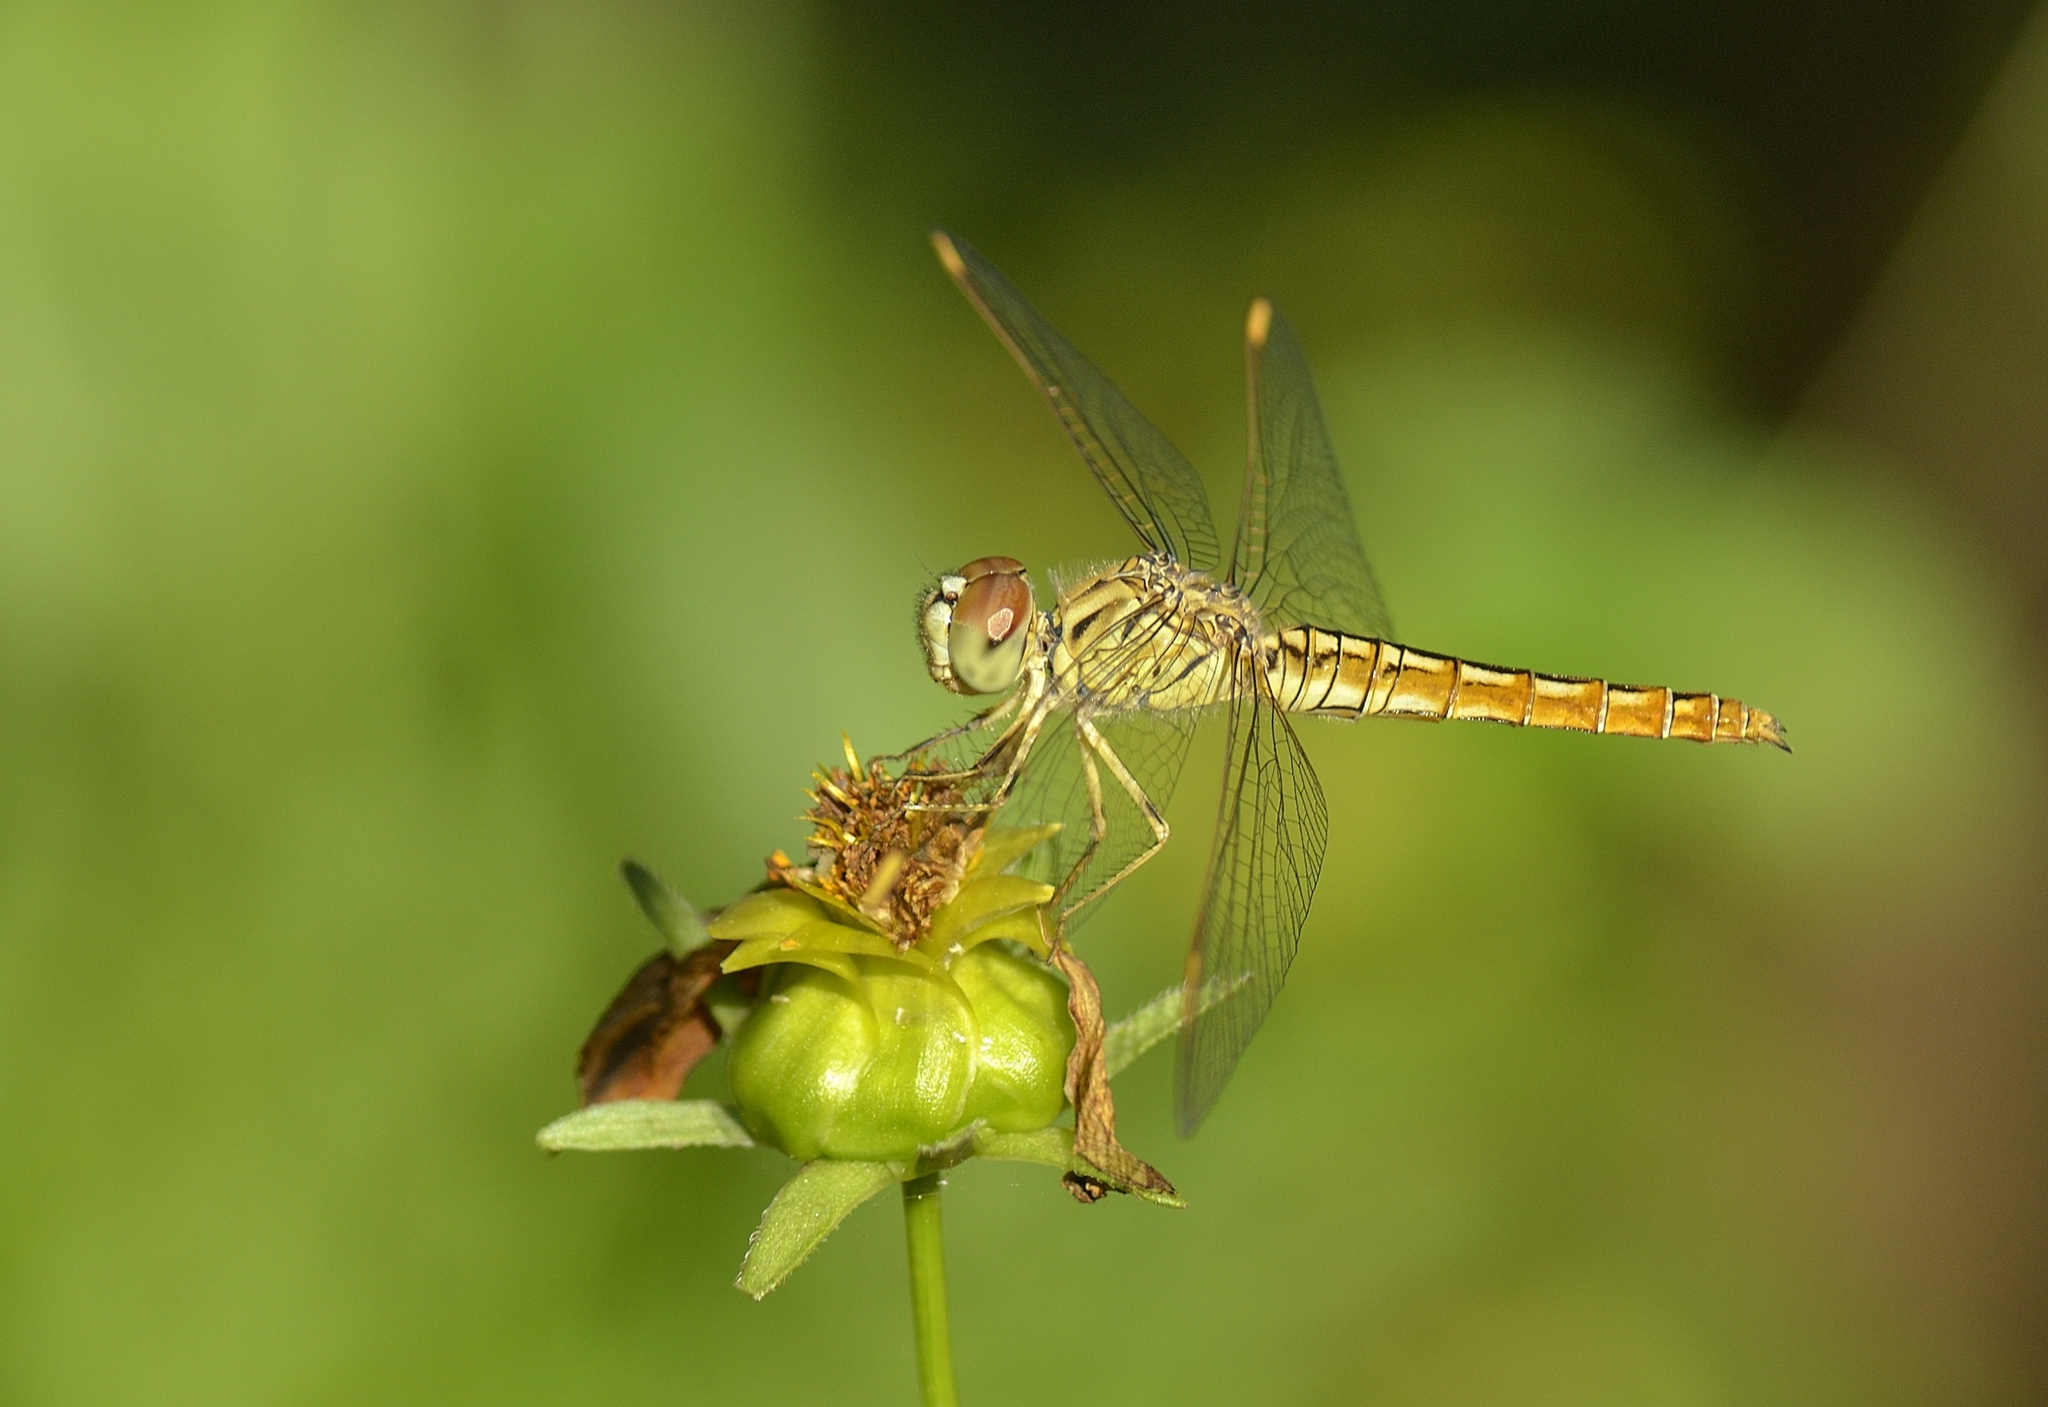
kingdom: Animalia
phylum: Arthropoda
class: Insecta
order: Odonata
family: Libellulidae
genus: Brachythemis
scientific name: Brachythemis contaminata
